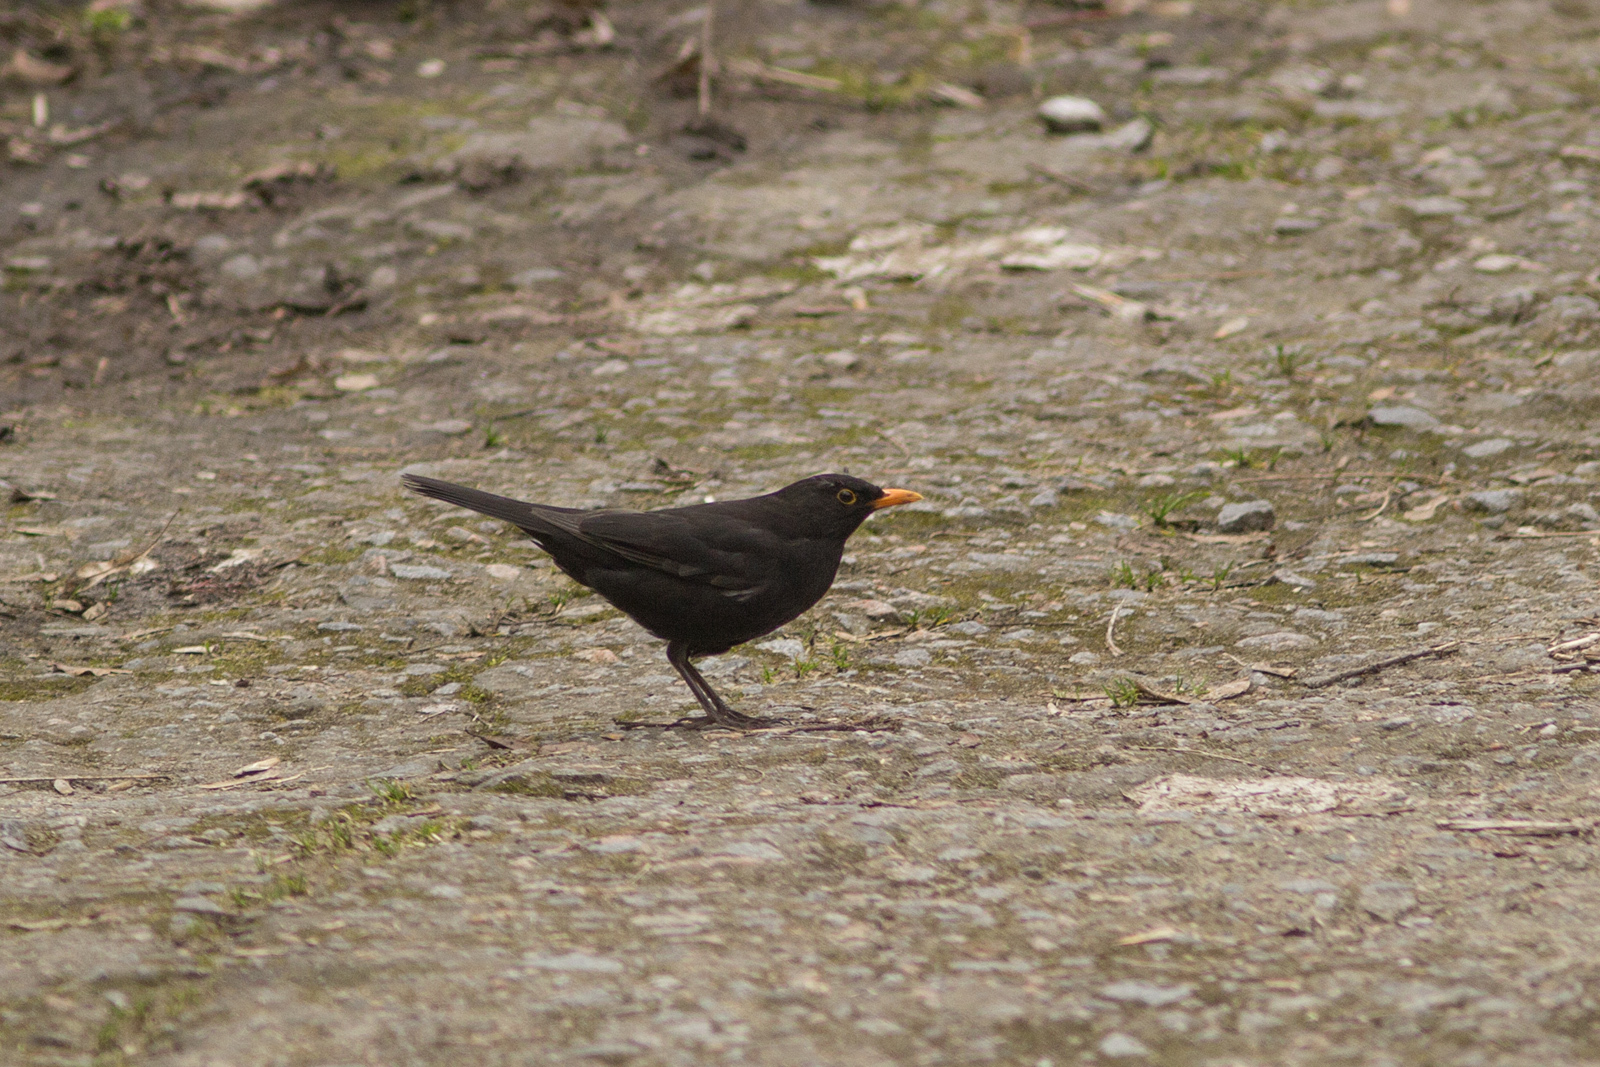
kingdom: Animalia
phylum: Chordata
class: Aves
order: Passeriformes
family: Turdidae
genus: Turdus
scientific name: Turdus merula
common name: Common blackbird
